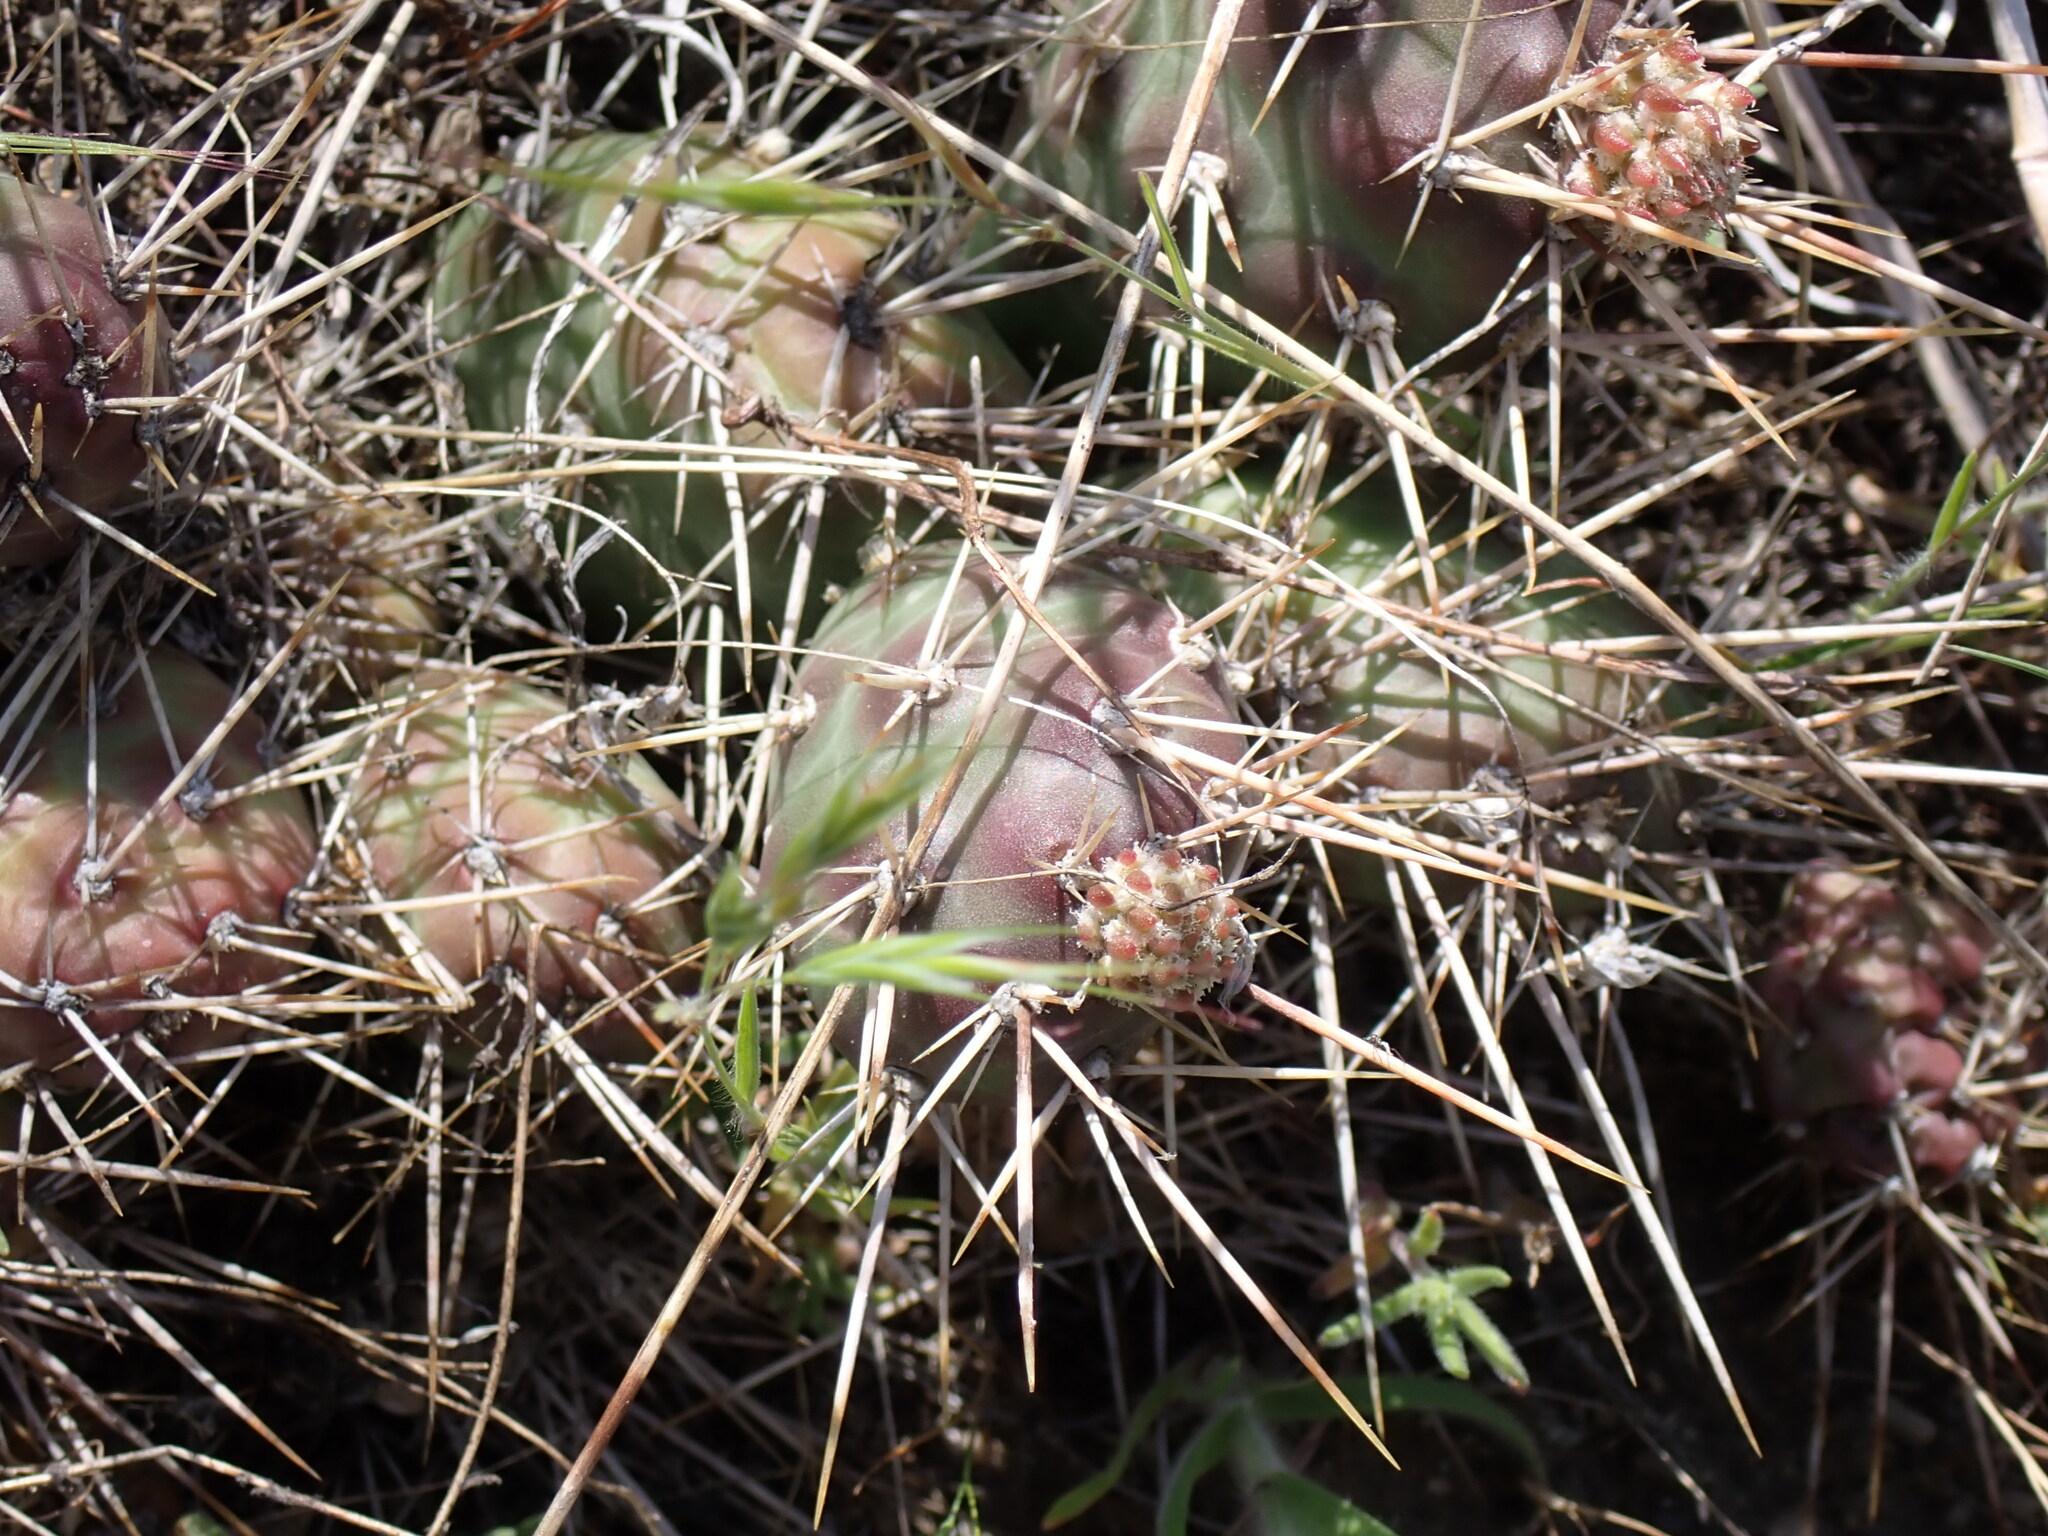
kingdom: Plantae
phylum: Tracheophyta
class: Magnoliopsida
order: Caryophyllales
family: Cactaceae
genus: Opuntia
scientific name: Opuntia fragilis
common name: Brittle cactus
